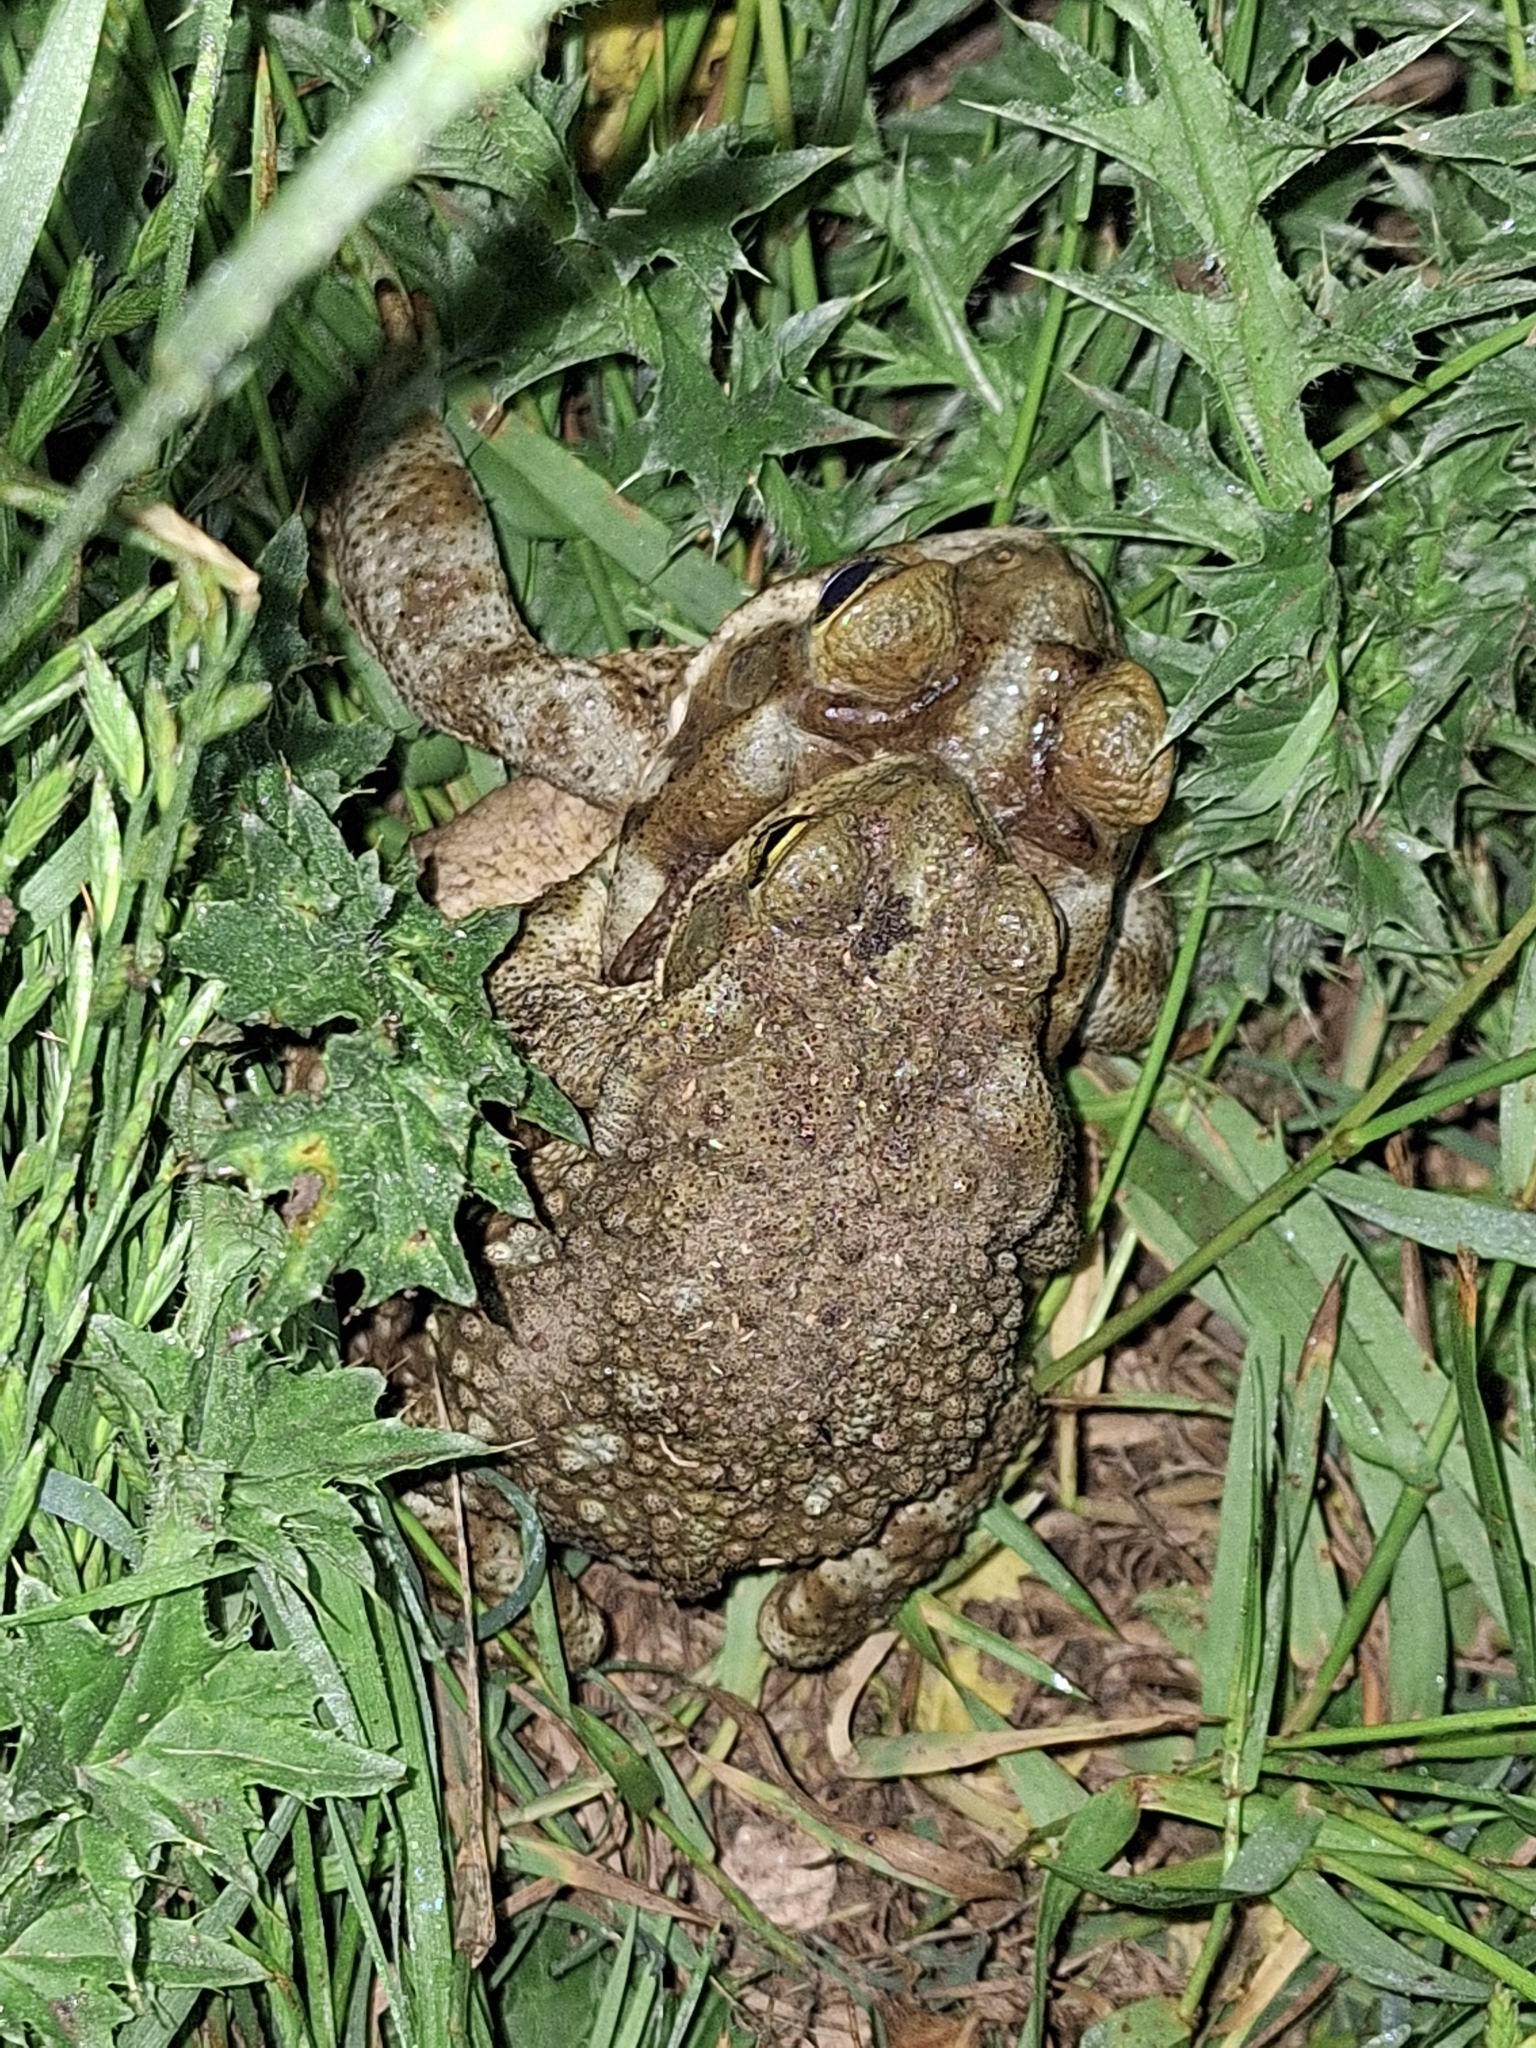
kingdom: Animalia
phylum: Chordata
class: Amphibia
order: Anura
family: Bufonidae
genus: Rhinella
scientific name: Rhinella arenarum
